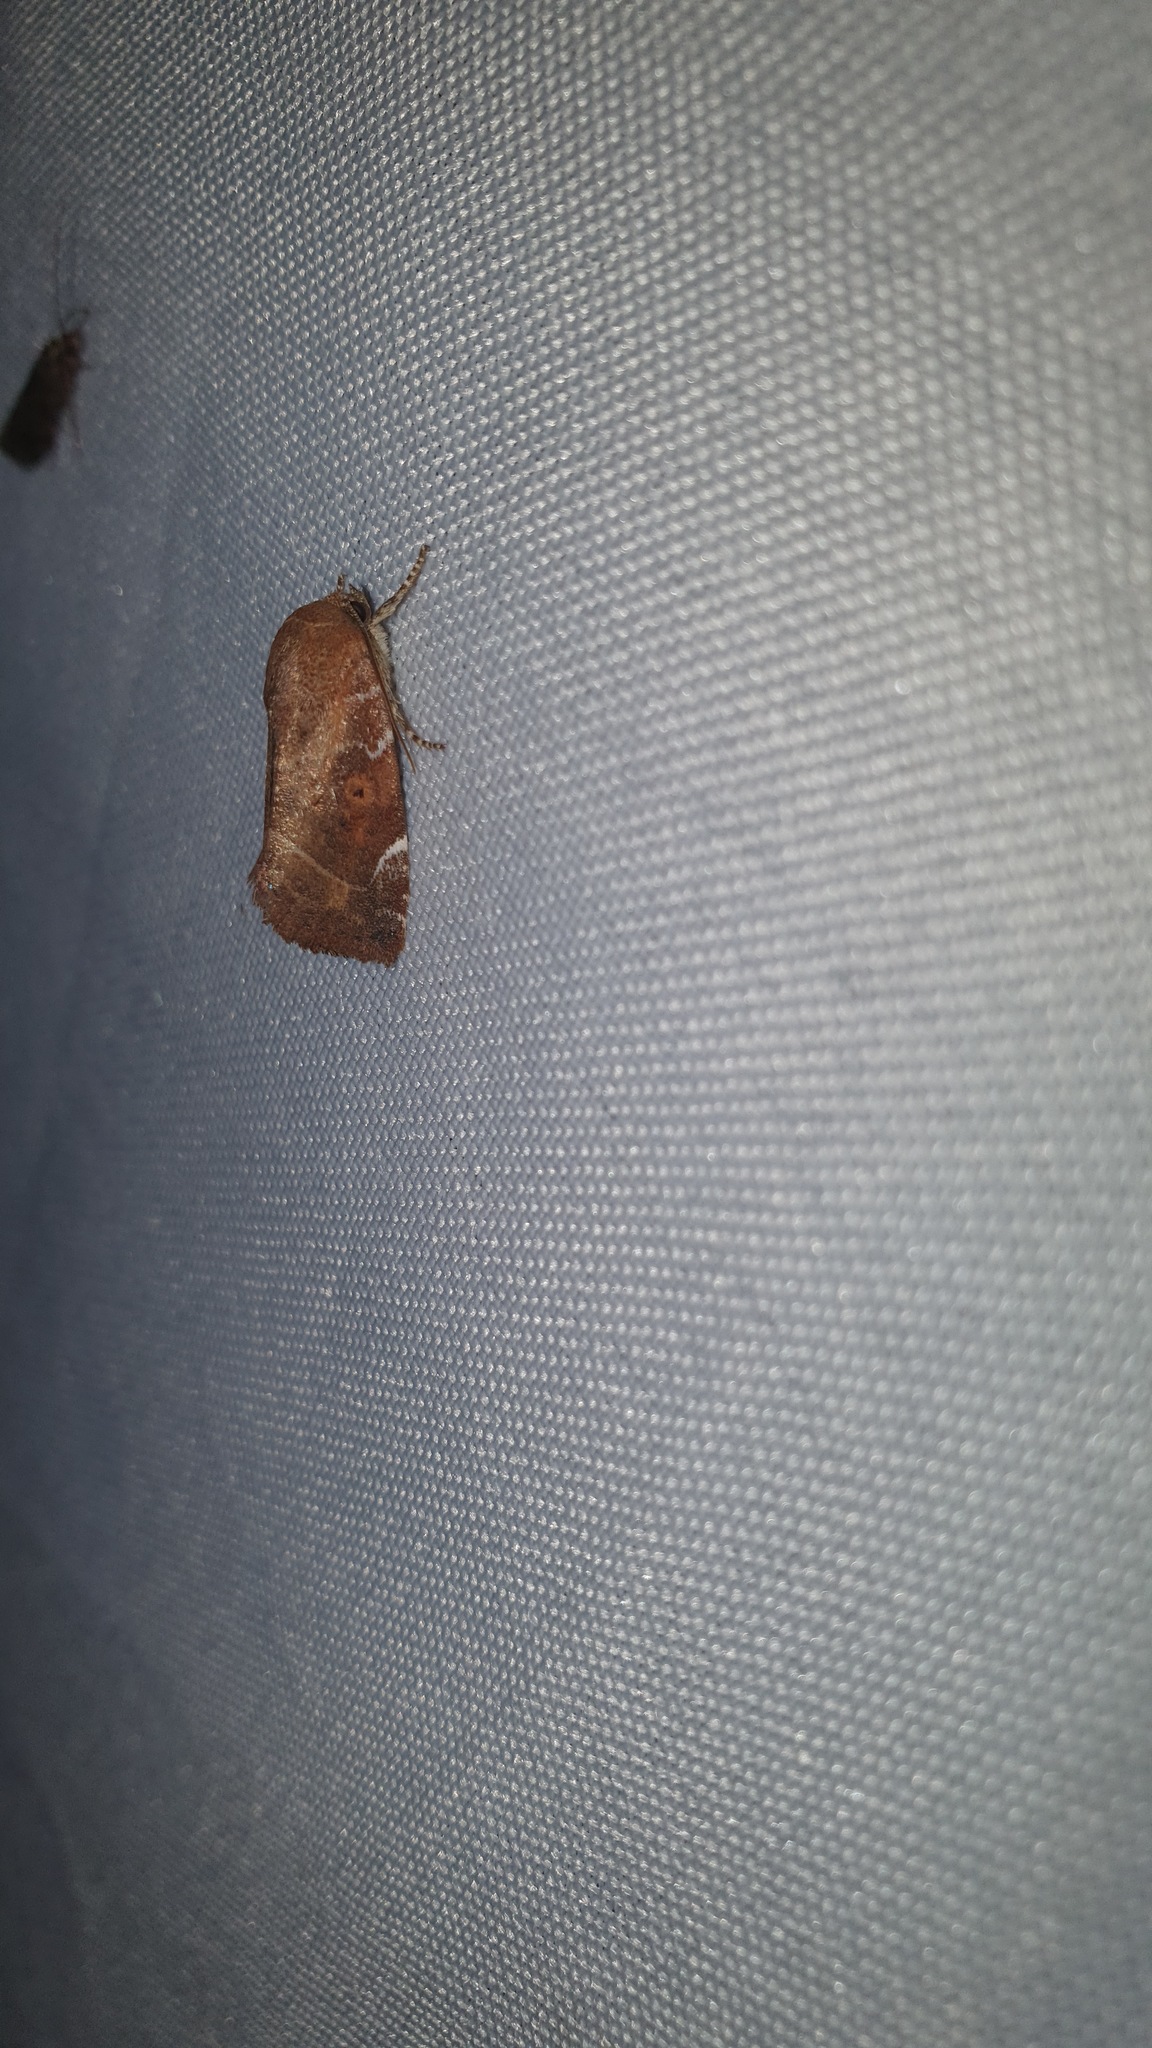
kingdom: Animalia
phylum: Arthropoda
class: Insecta
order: Lepidoptera
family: Noctuidae
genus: Cosmia
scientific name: Cosmia affinis
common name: Lesser-spotted pinion
